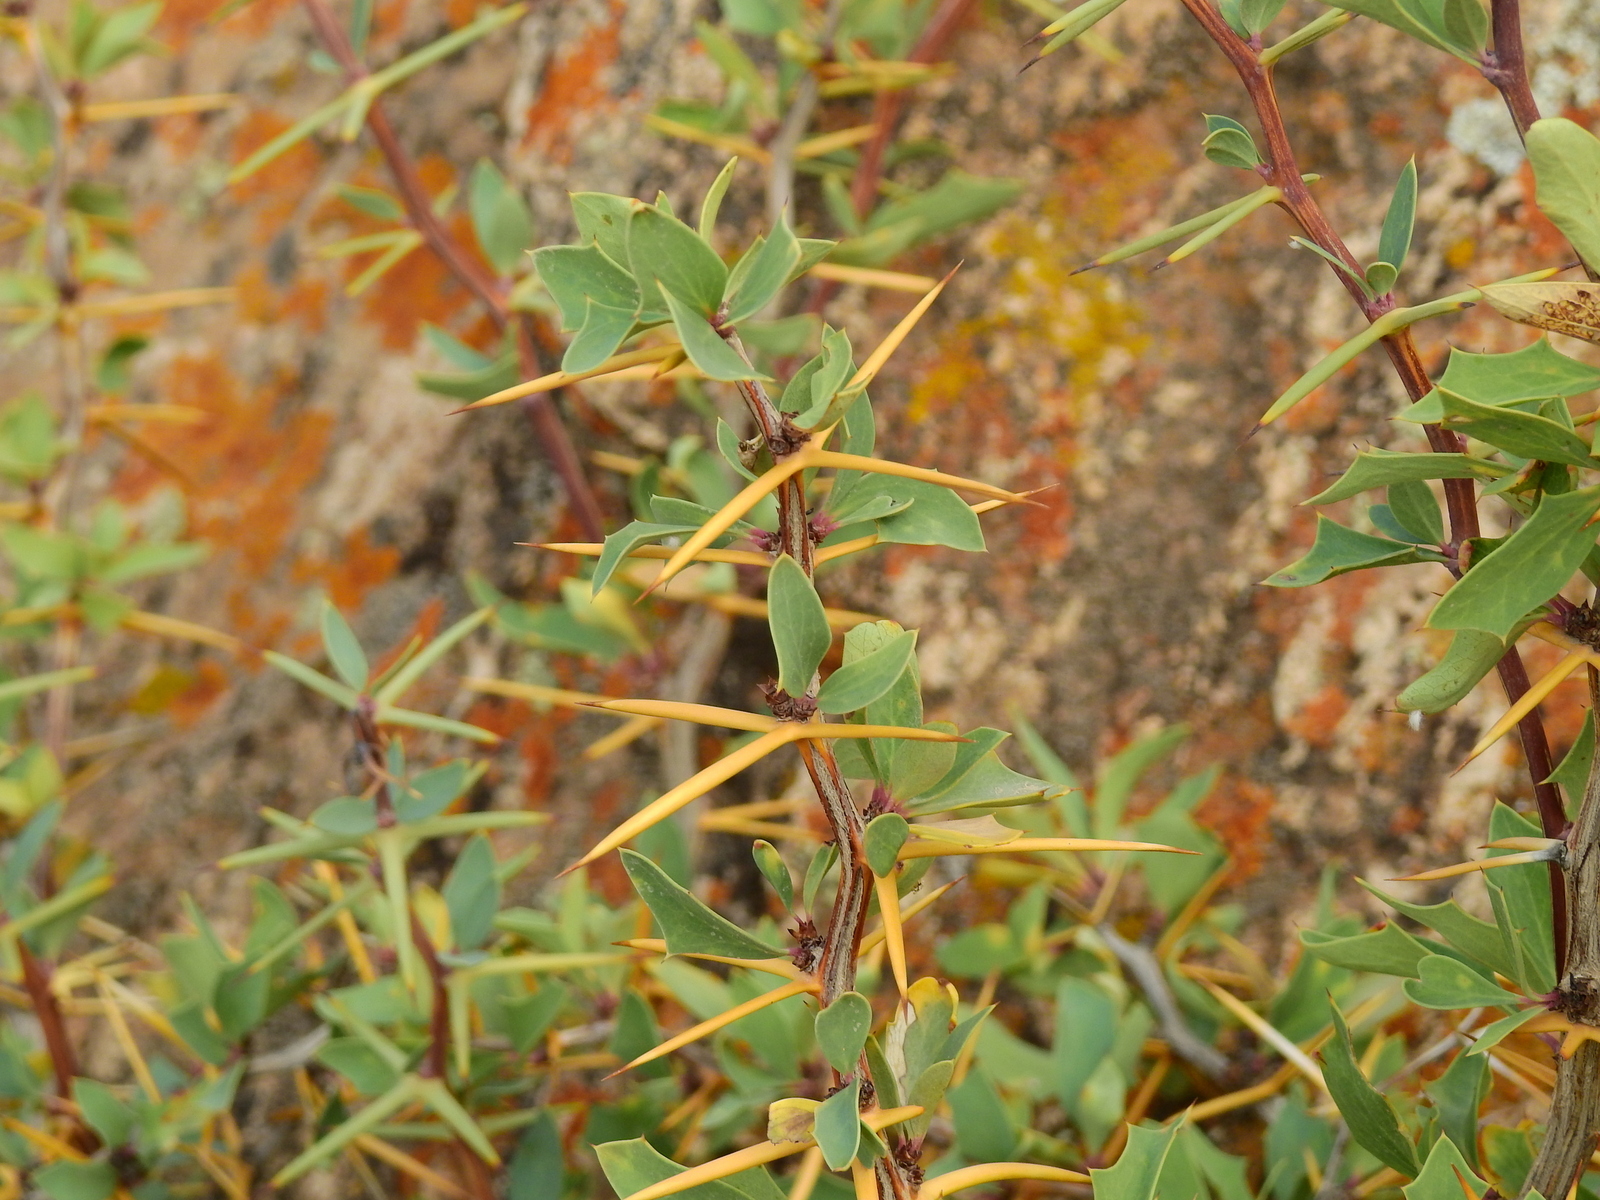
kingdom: Plantae
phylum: Tracheophyta
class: Magnoliopsida
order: Ranunculales
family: Berberidaceae
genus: Berberis
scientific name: Berberis grevilleana
